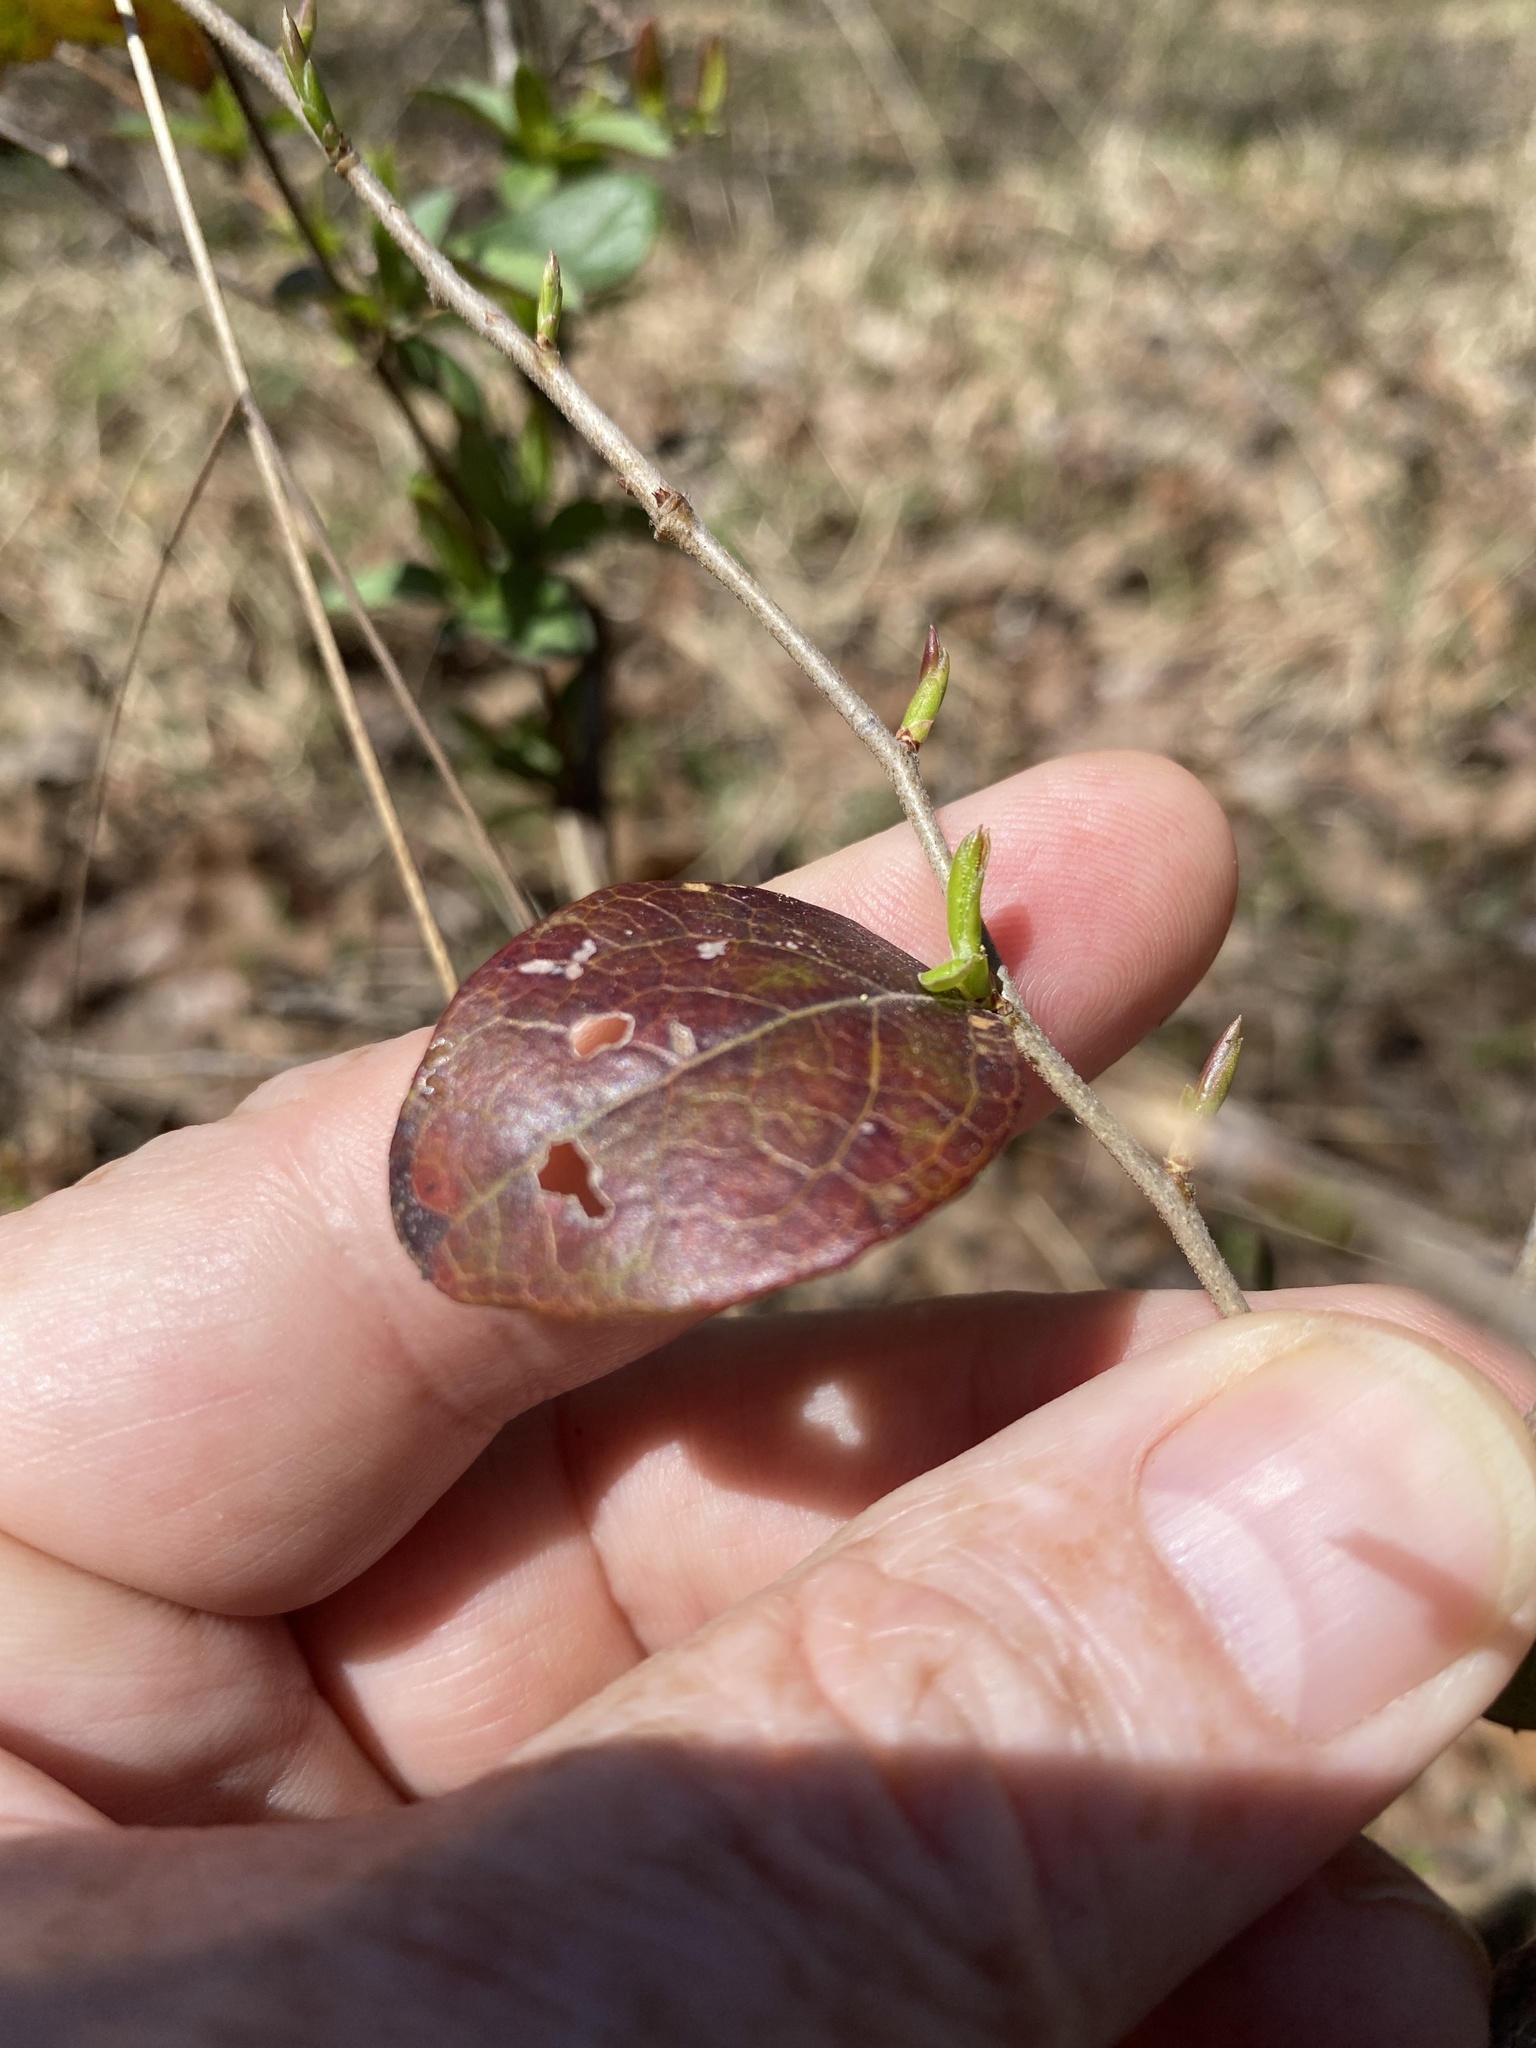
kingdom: Plantae
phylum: Tracheophyta
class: Magnoliopsida
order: Ericales
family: Ericaceae
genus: Vaccinium
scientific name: Vaccinium arboreum
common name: Farkleberry
